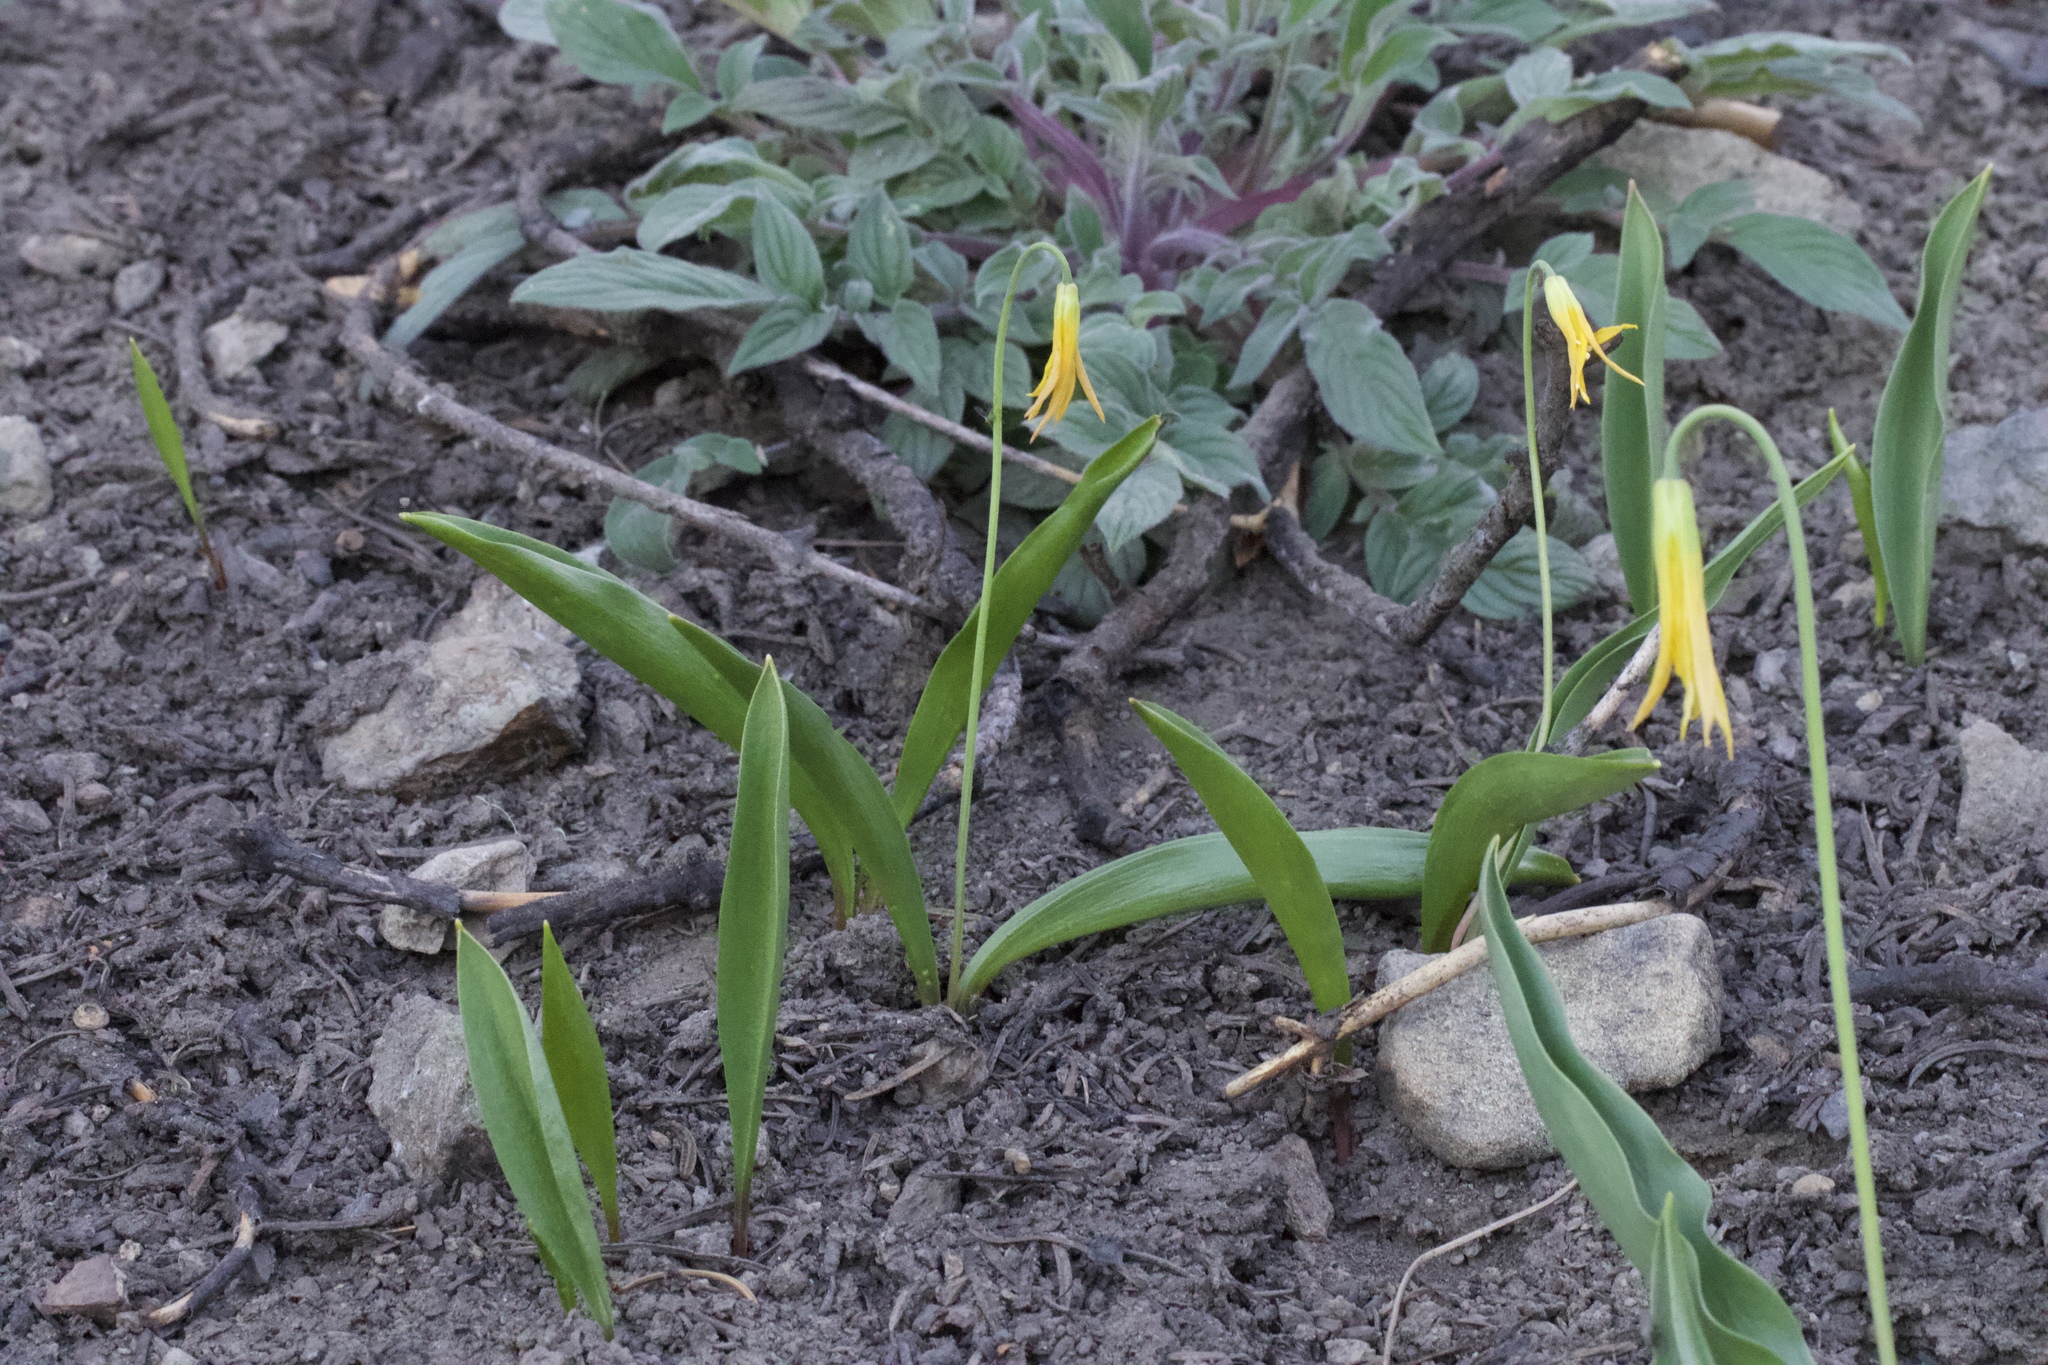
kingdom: Plantae
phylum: Tracheophyta
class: Liliopsida
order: Liliales
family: Liliaceae
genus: Erythronium
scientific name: Erythronium grandiflorum
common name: Avalanche-lily
